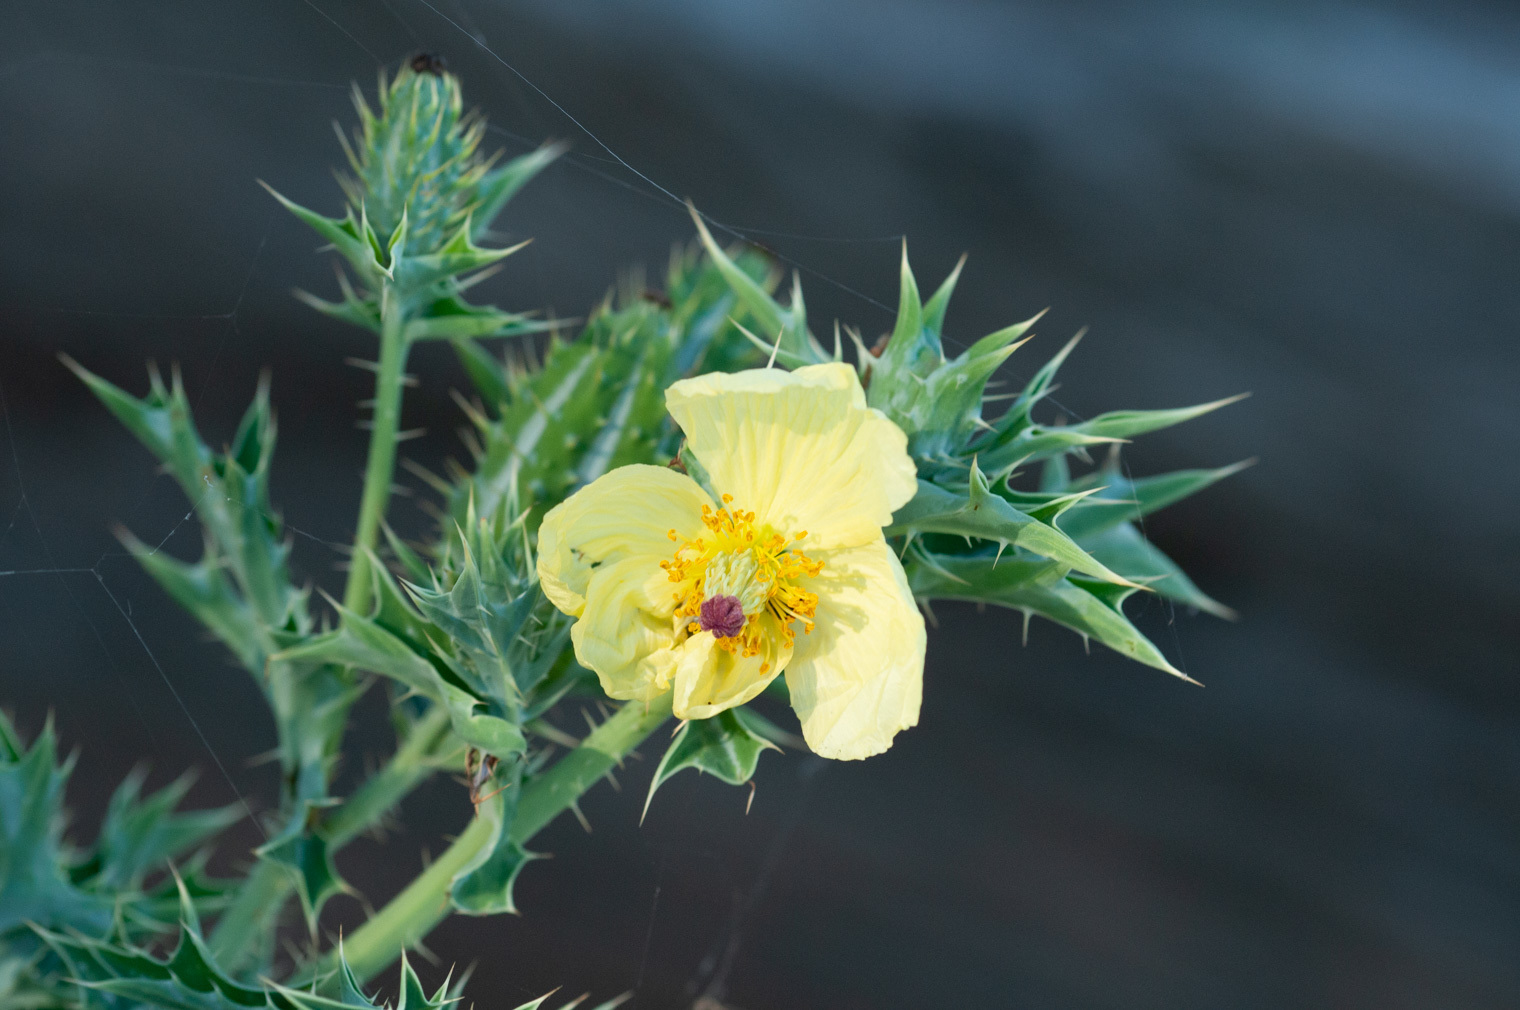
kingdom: Plantae
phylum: Tracheophyta
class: Magnoliopsida
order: Ranunculales
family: Papaveraceae
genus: Argemone
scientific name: Argemone ochroleuca
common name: White-flower mexican-poppy
